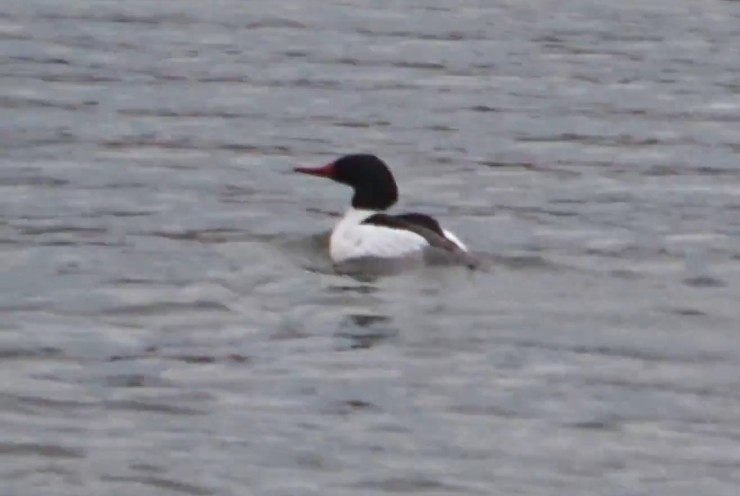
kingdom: Animalia
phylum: Chordata
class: Aves
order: Anseriformes
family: Anatidae
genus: Mergus
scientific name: Mergus merganser
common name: Common merganser
